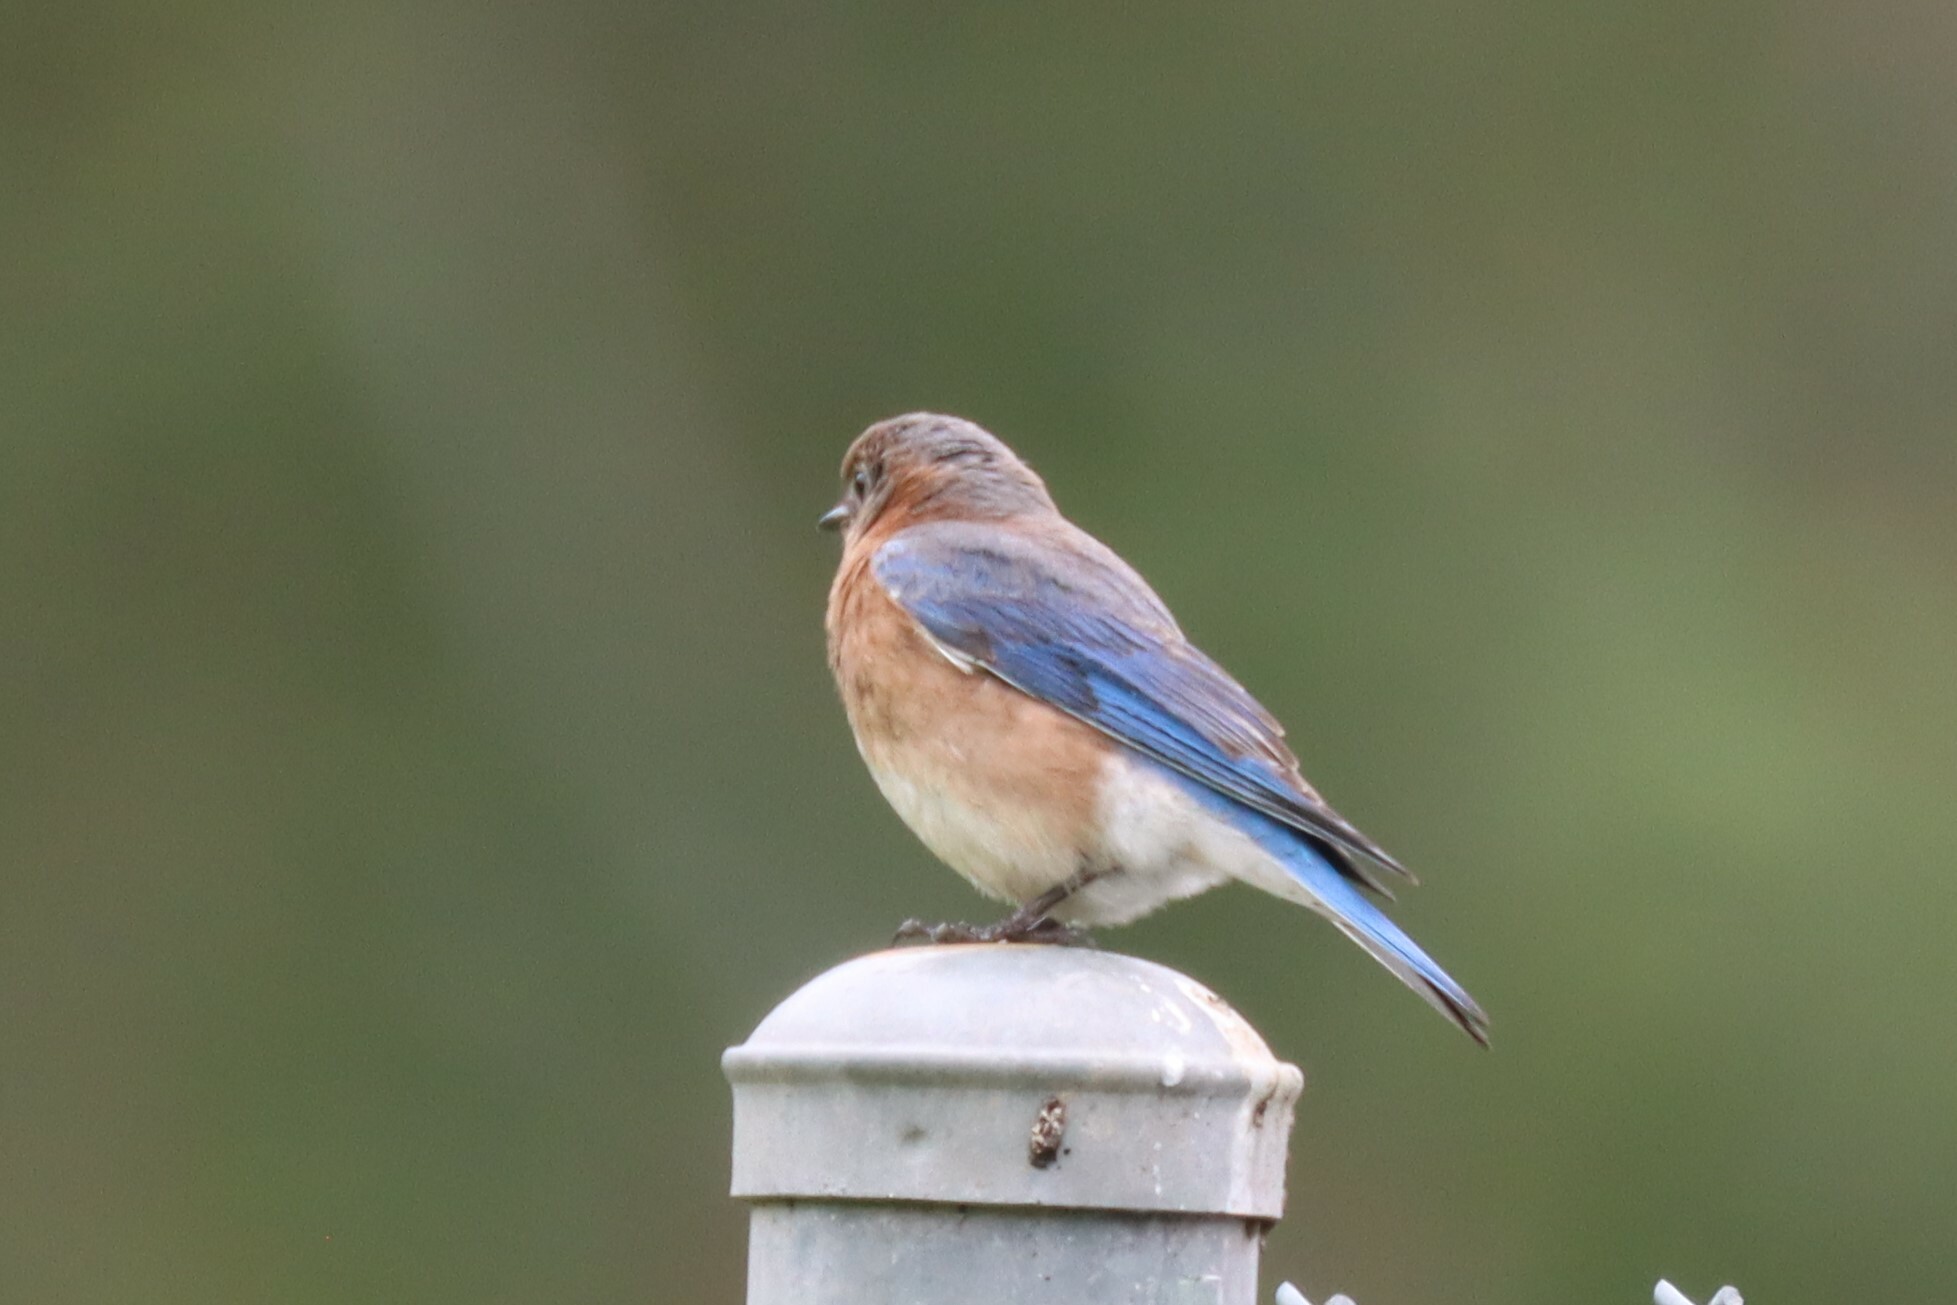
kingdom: Animalia
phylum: Chordata
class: Aves
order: Passeriformes
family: Turdidae
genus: Sialia
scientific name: Sialia sialis
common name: Eastern bluebird
